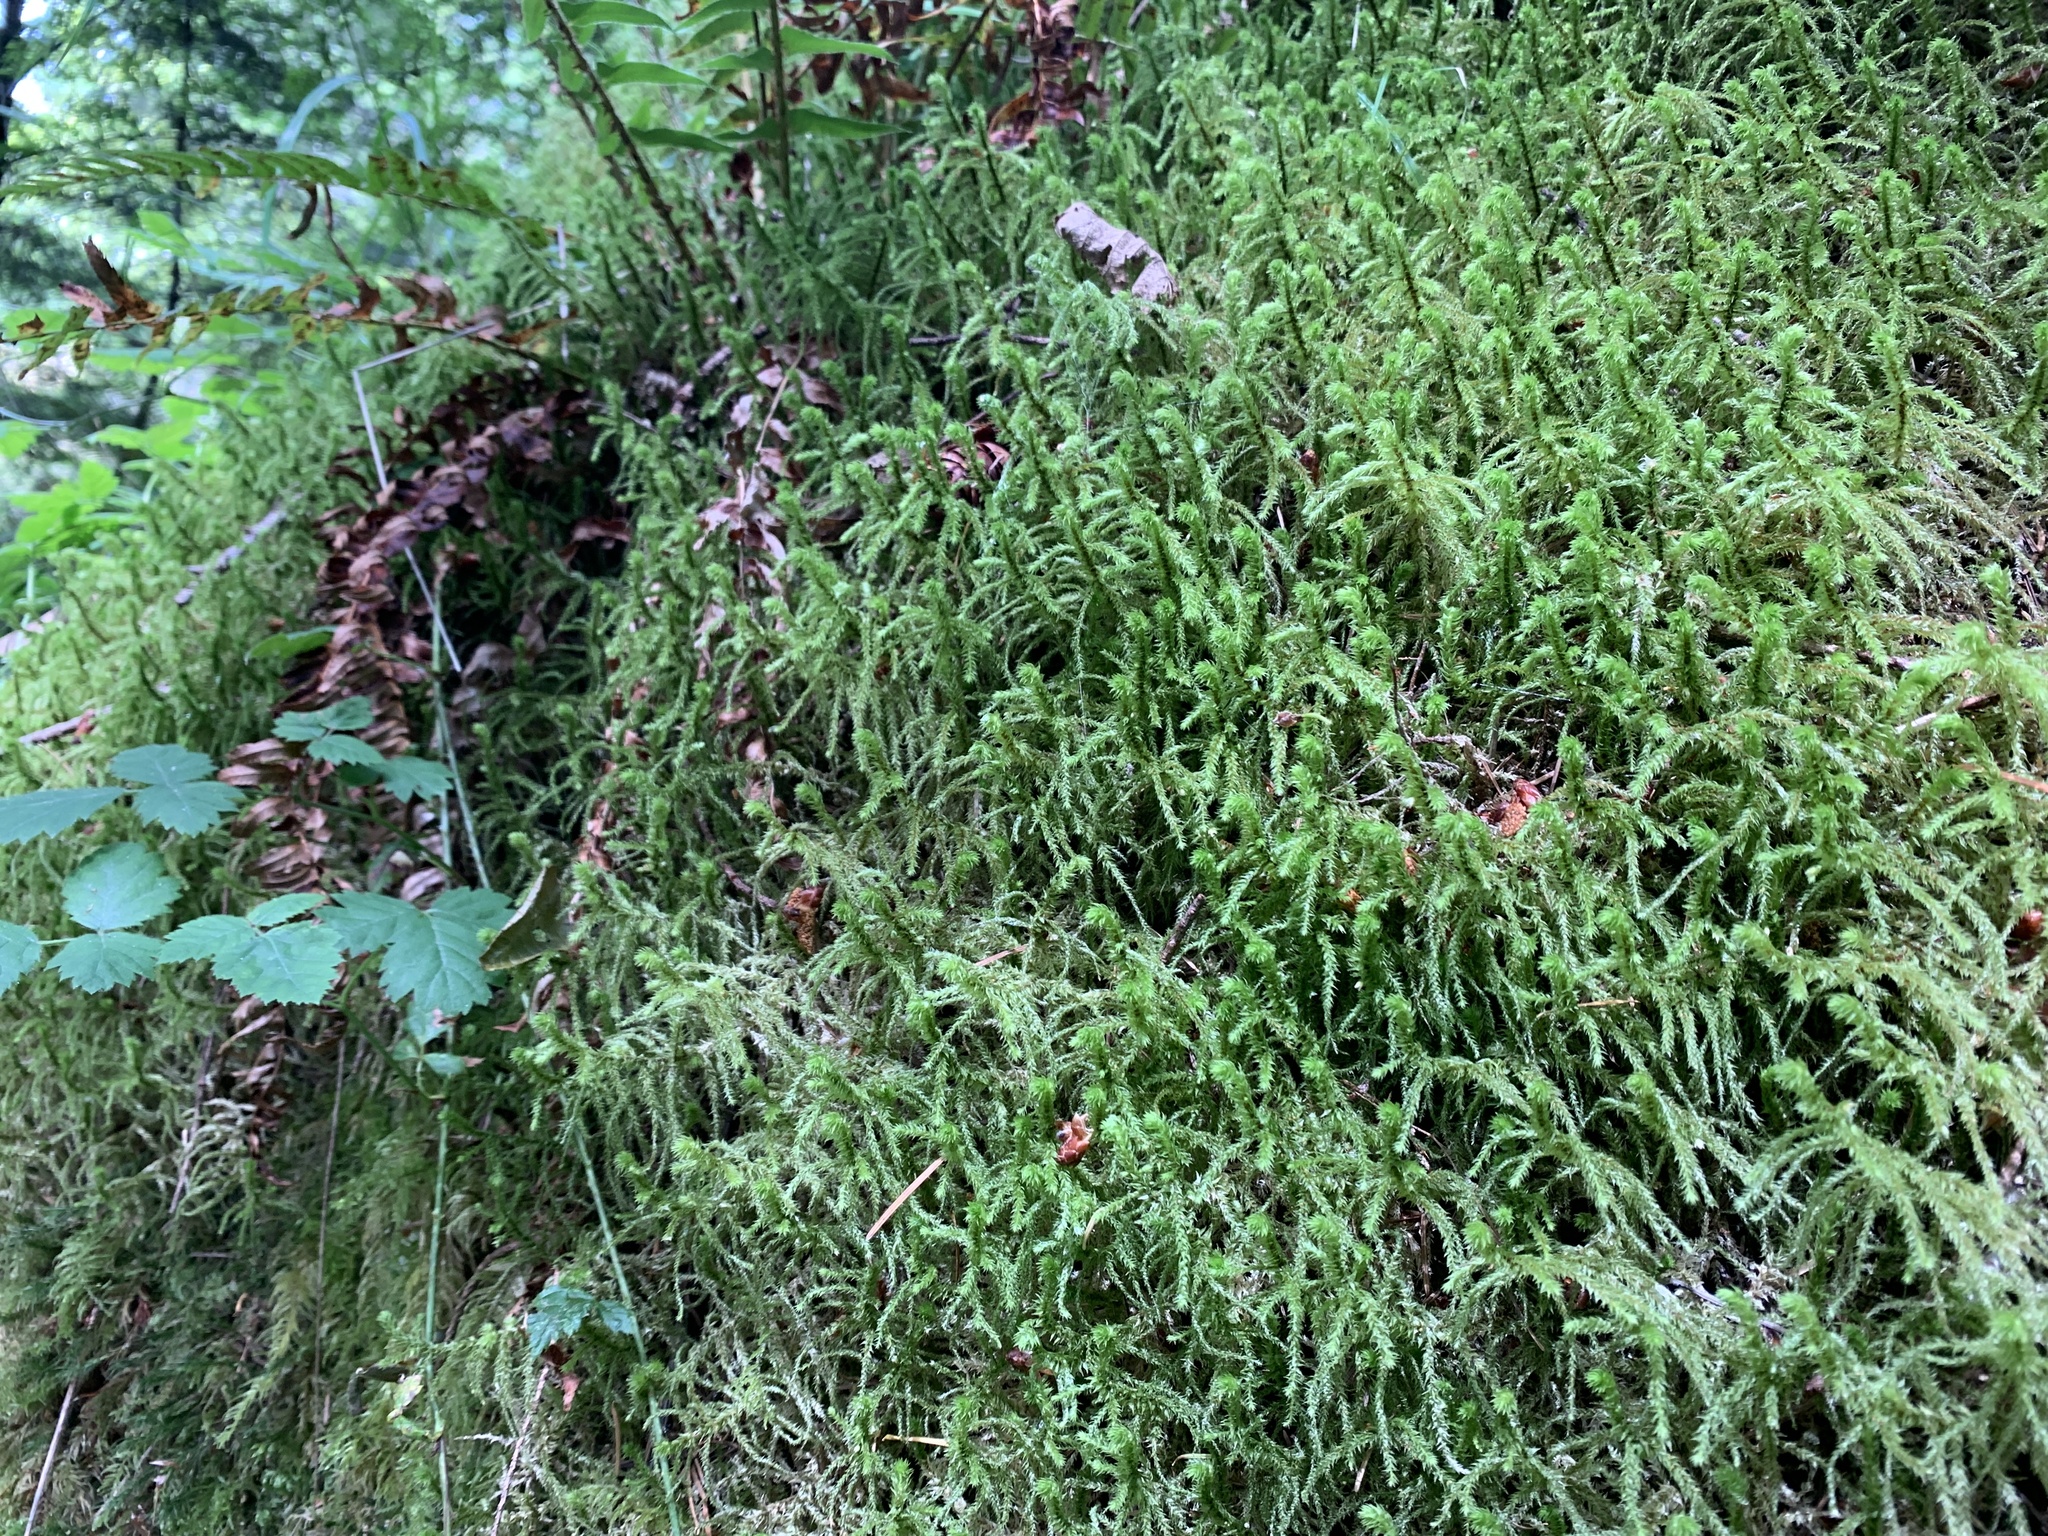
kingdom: Plantae
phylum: Bryophyta
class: Bryopsida
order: Hypnales
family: Hylocomiaceae
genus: Hylocomiadelphus
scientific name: Hylocomiadelphus triquetrus
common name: Rough goose neck moss
